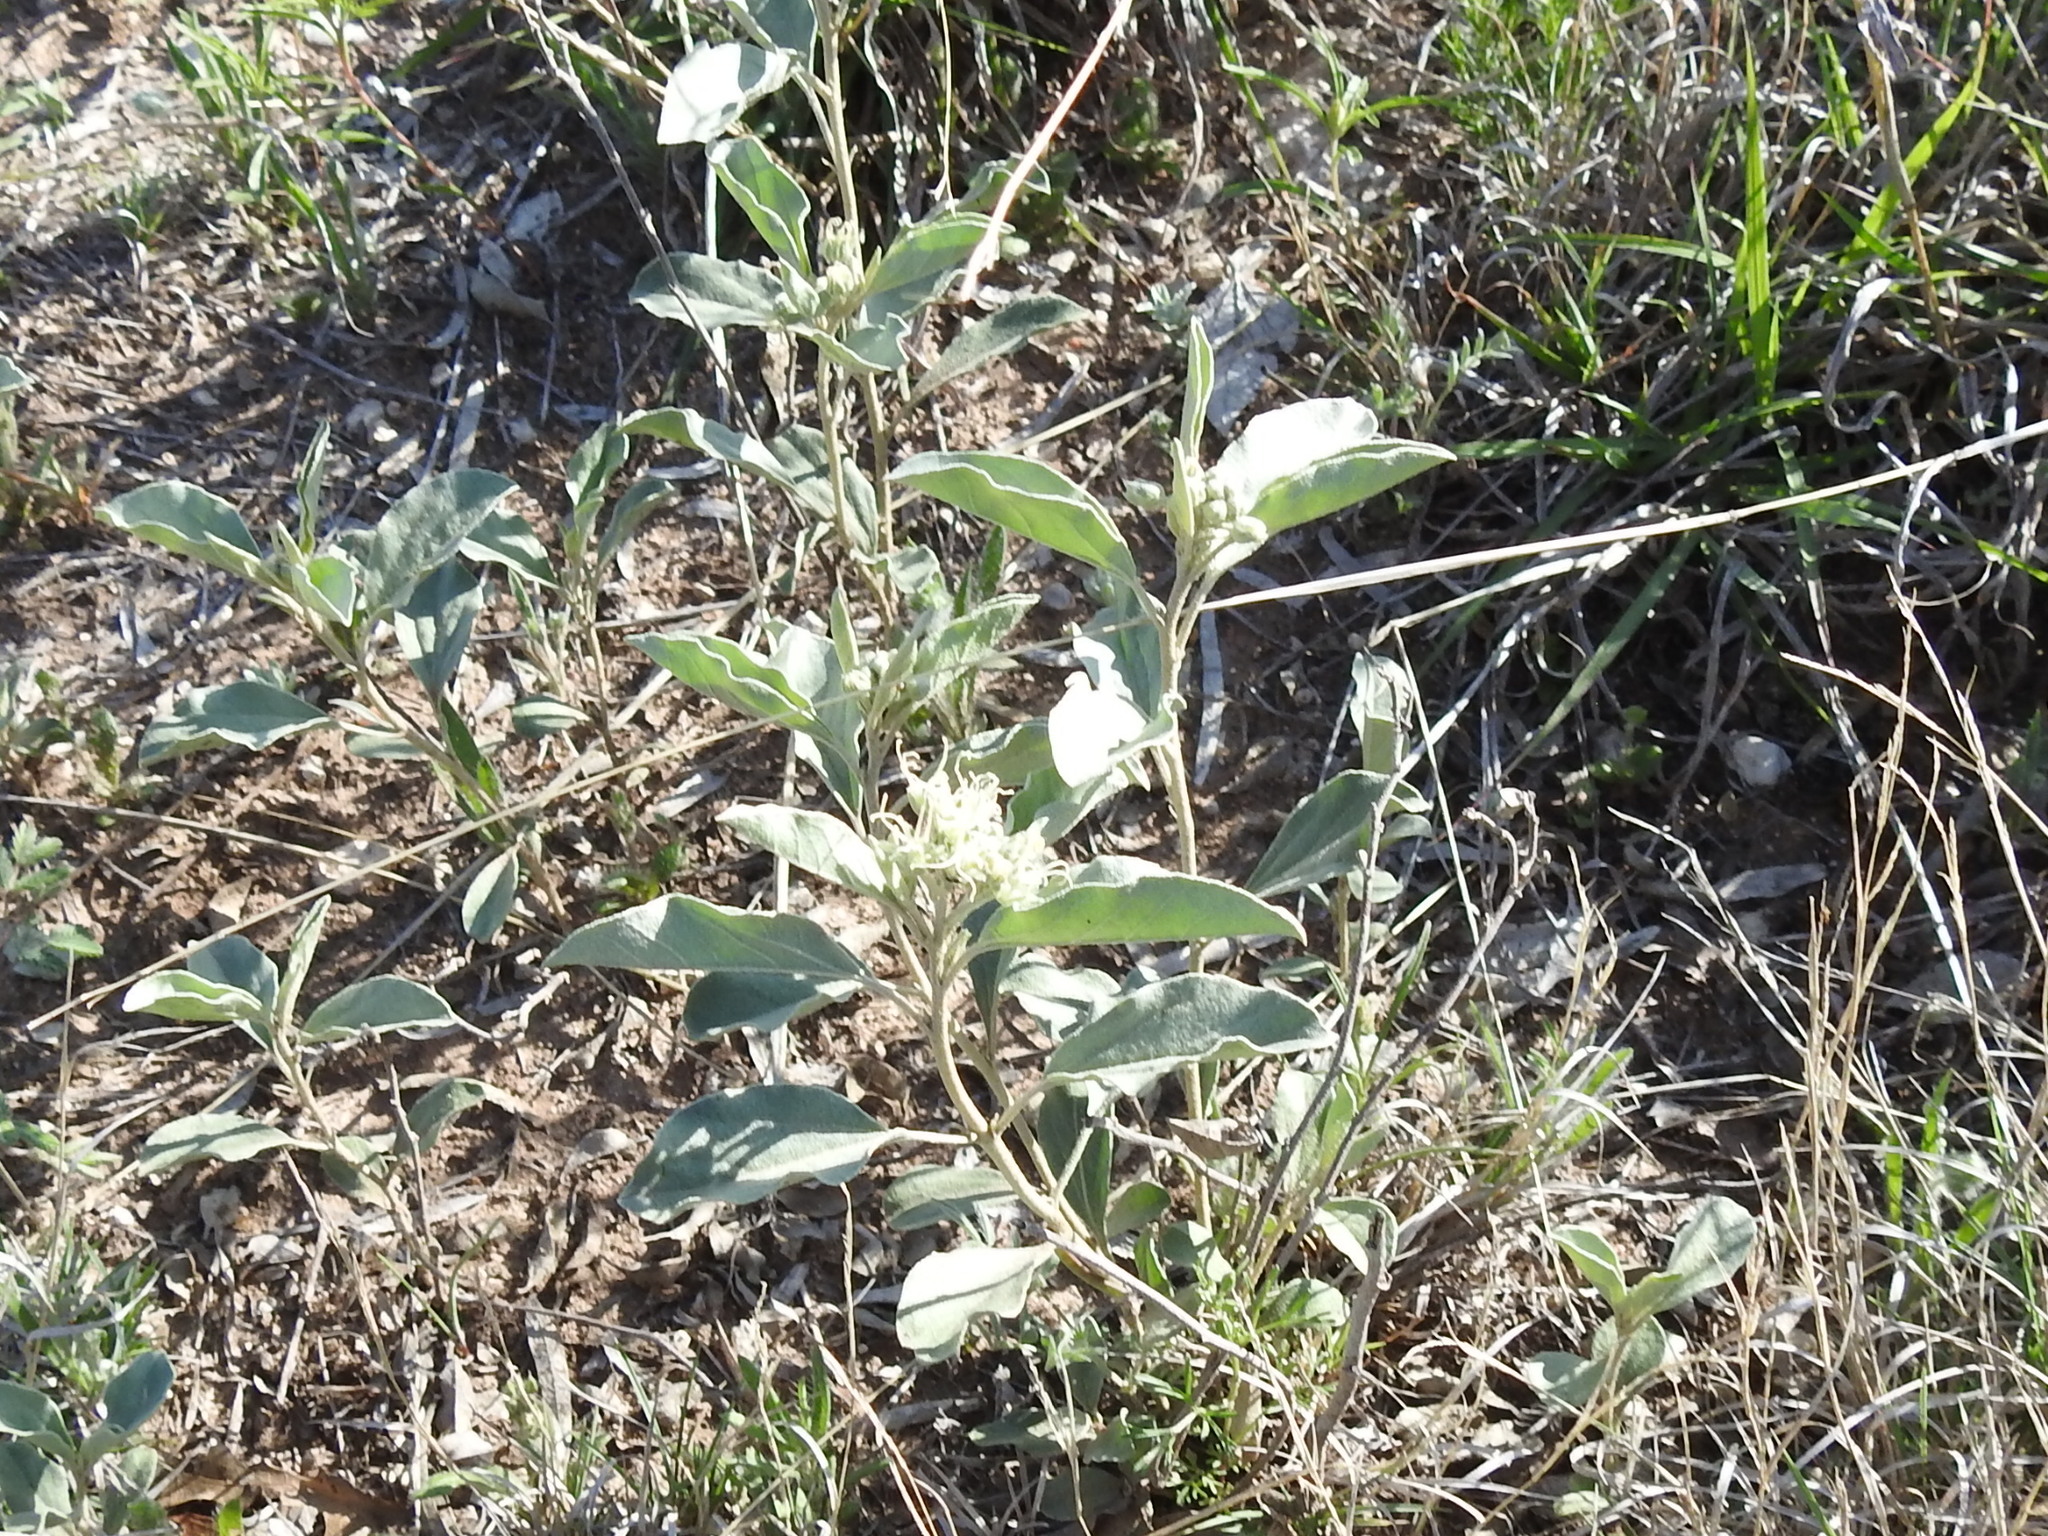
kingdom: Plantae
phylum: Tracheophyta
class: Magnoliopsida
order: Malpighiales
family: Euphorbiaceae
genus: Croton
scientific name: Croton pottsii
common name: Leatherweed
